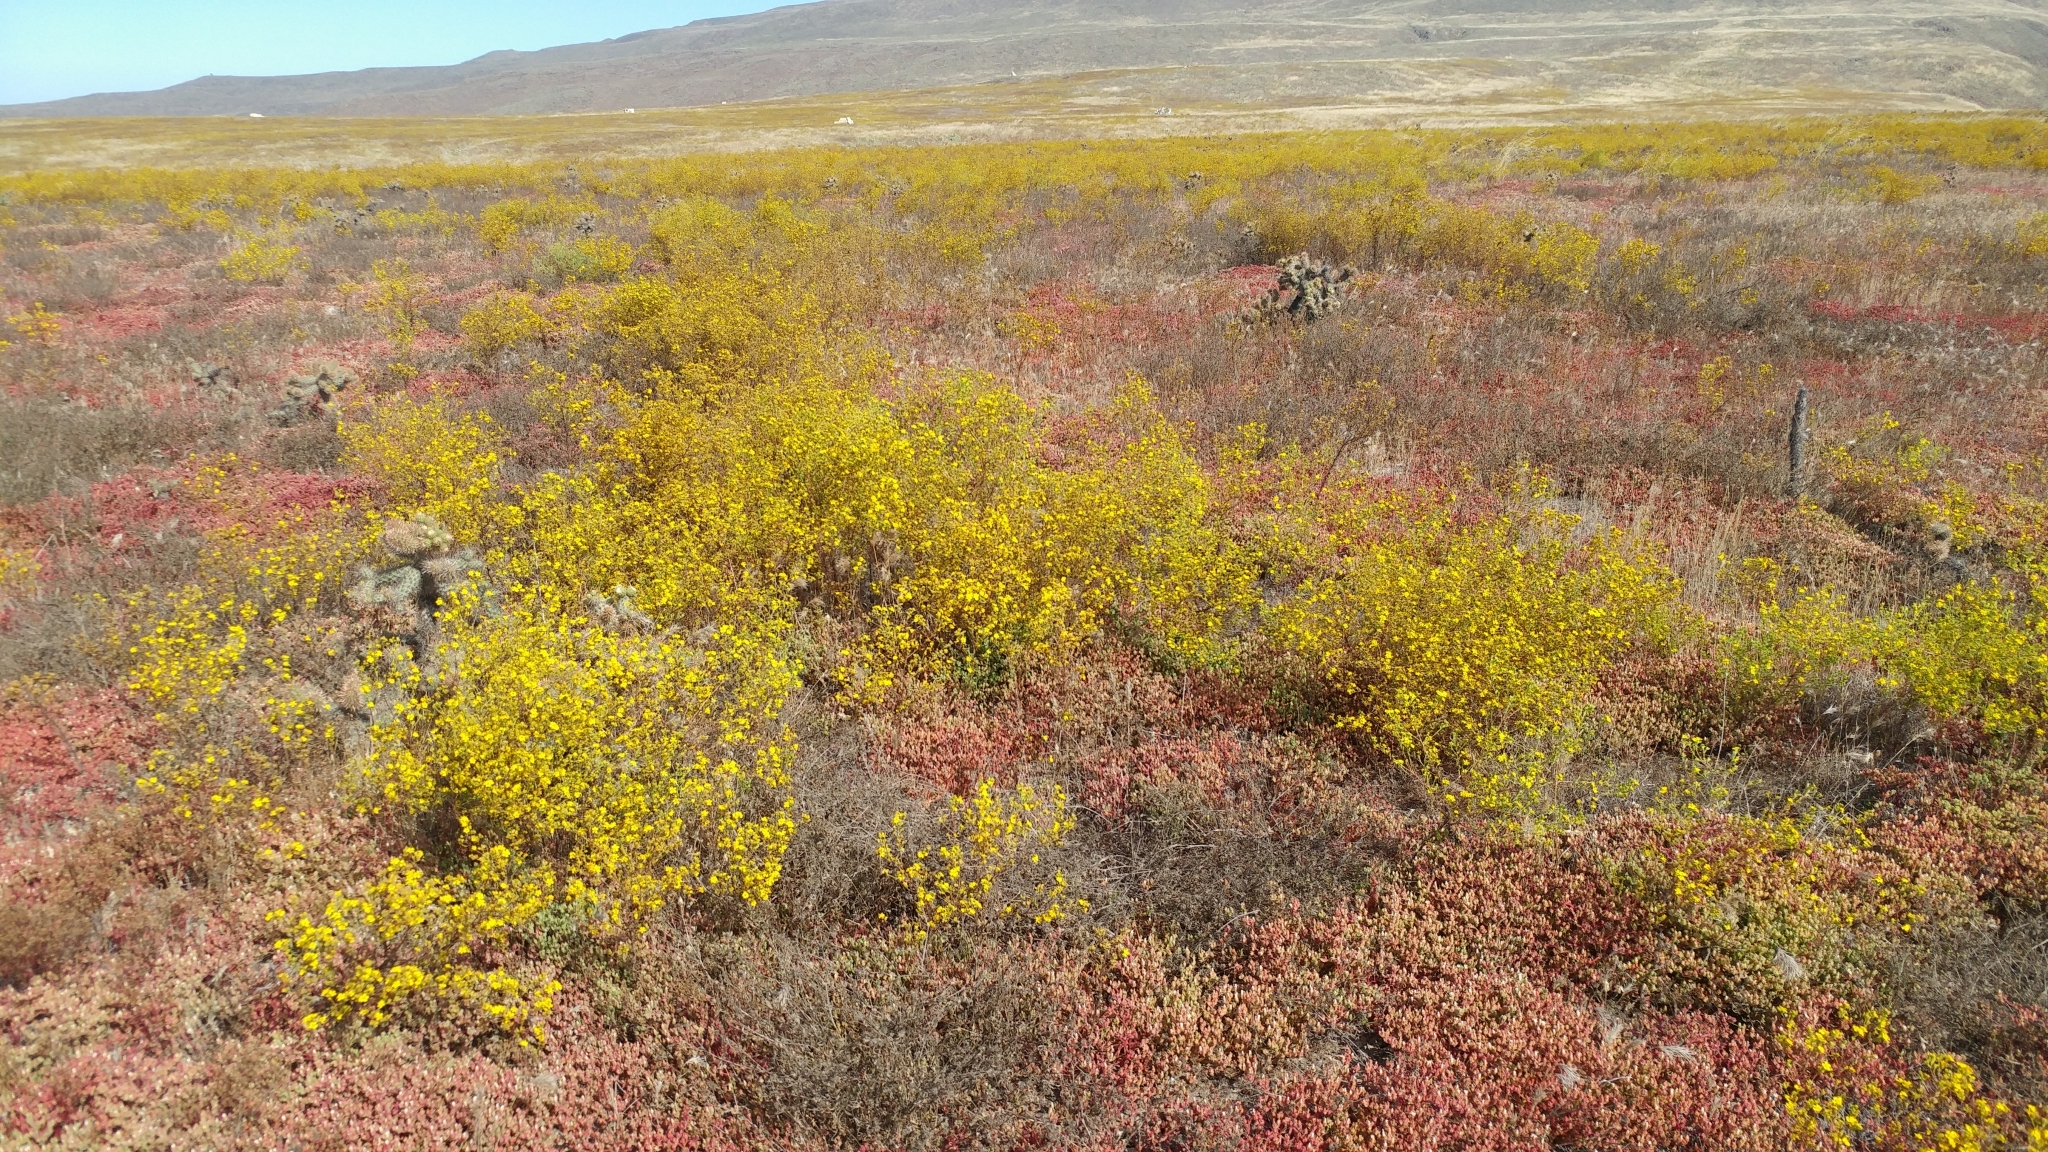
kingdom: Plantae
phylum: Tracheophyta
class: Magnoliopsida
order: Asterales
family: Asteraceae
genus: Deinandra
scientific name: Deinandra fasciculata
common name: Clustered tarweed
